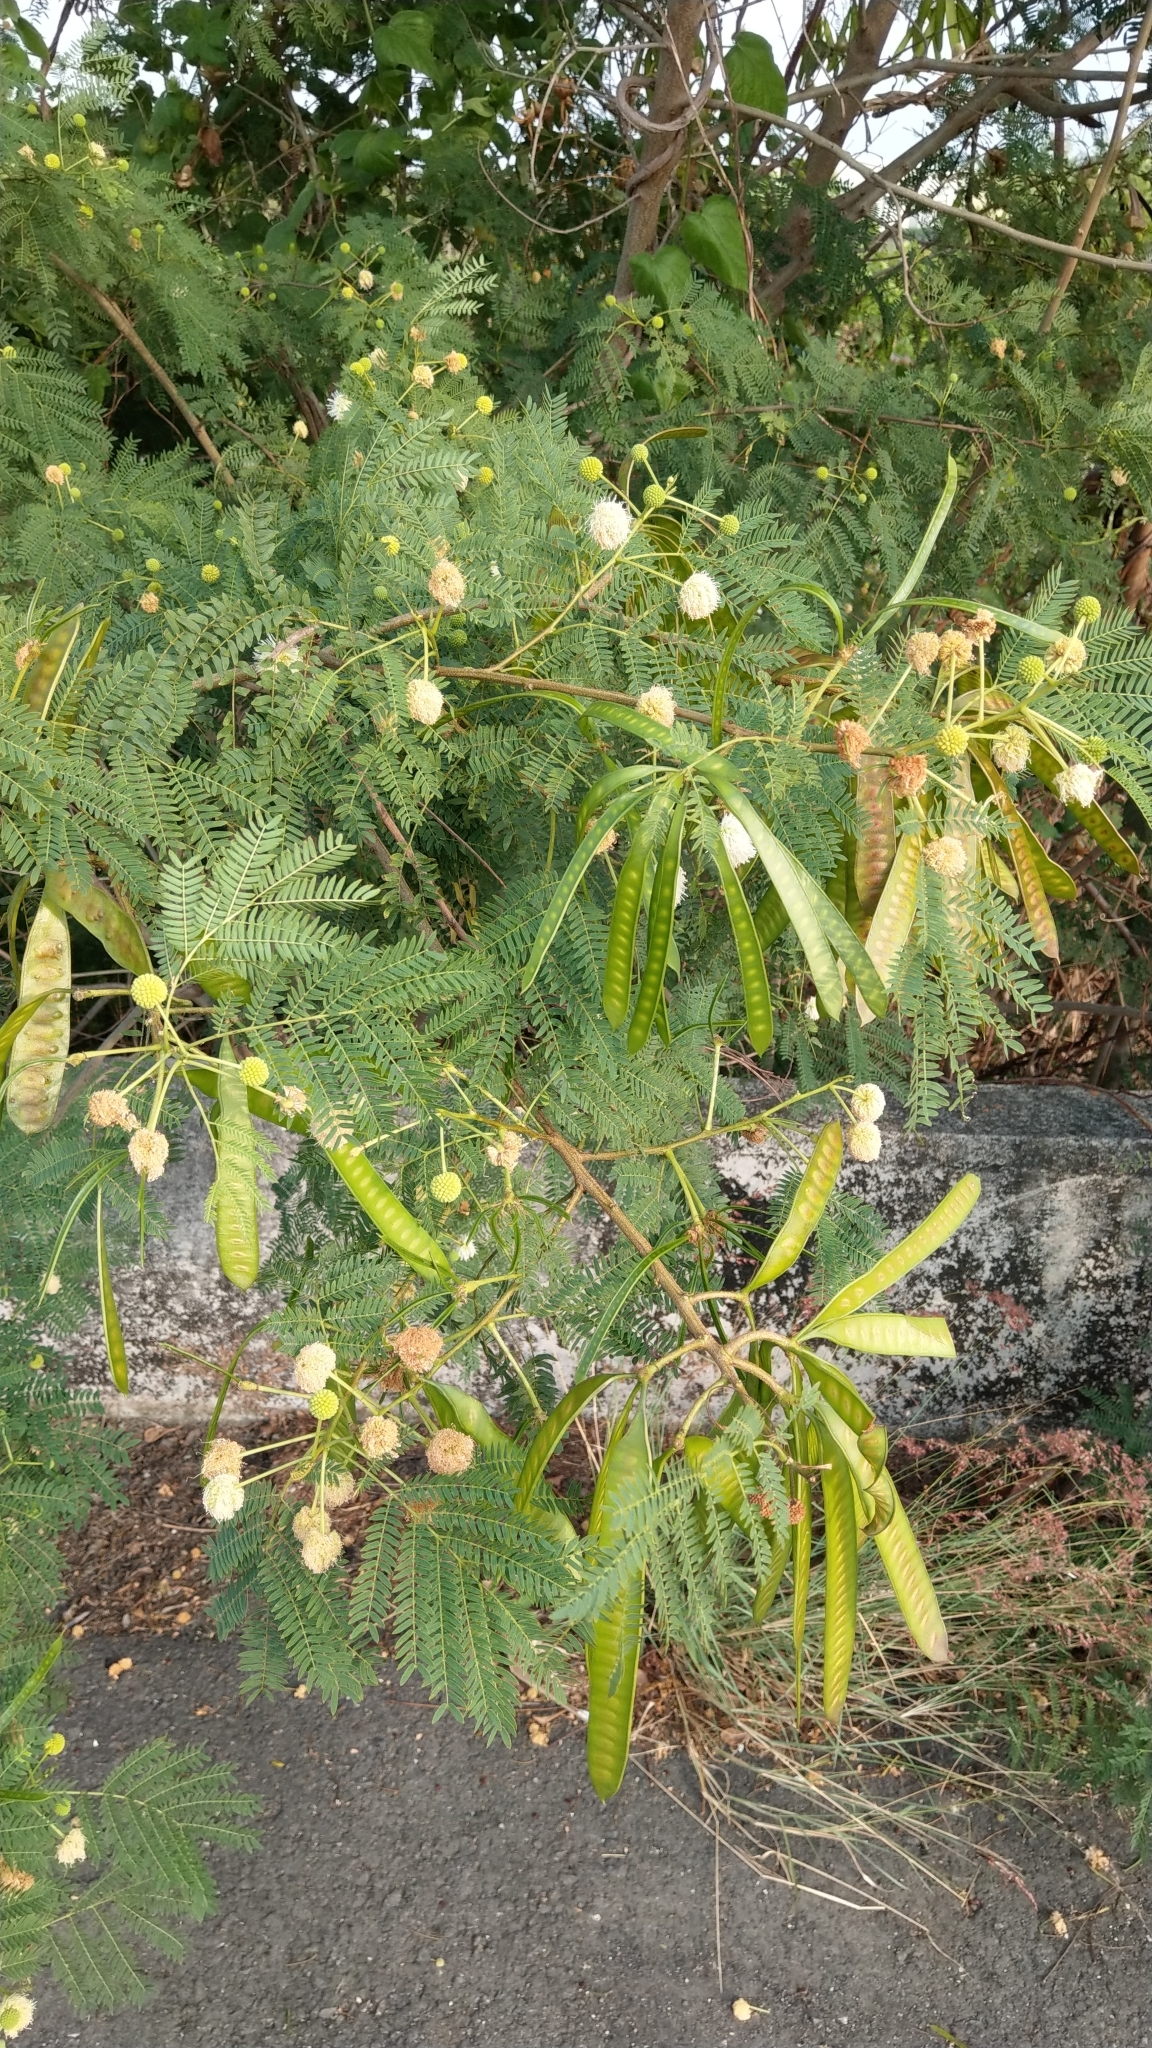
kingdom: Plantae
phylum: Tracheophyta
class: Magnoliopsida
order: Fabales
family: Fabaceae
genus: Leucaena
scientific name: Leucaena leucocephala
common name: White leadtree
